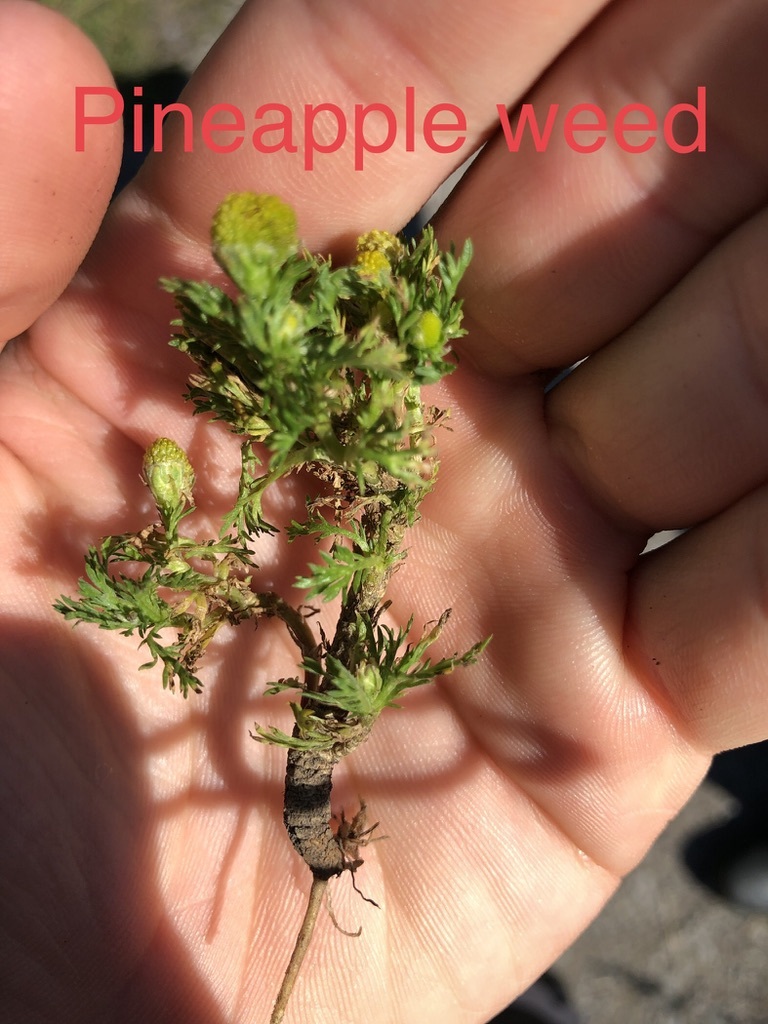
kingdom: Plantae
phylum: Tracheophyta
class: Magnoliopsida
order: Asterales
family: Asteraceae
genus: Matricaria
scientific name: Matricaria discoidea
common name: Disc mayweed
